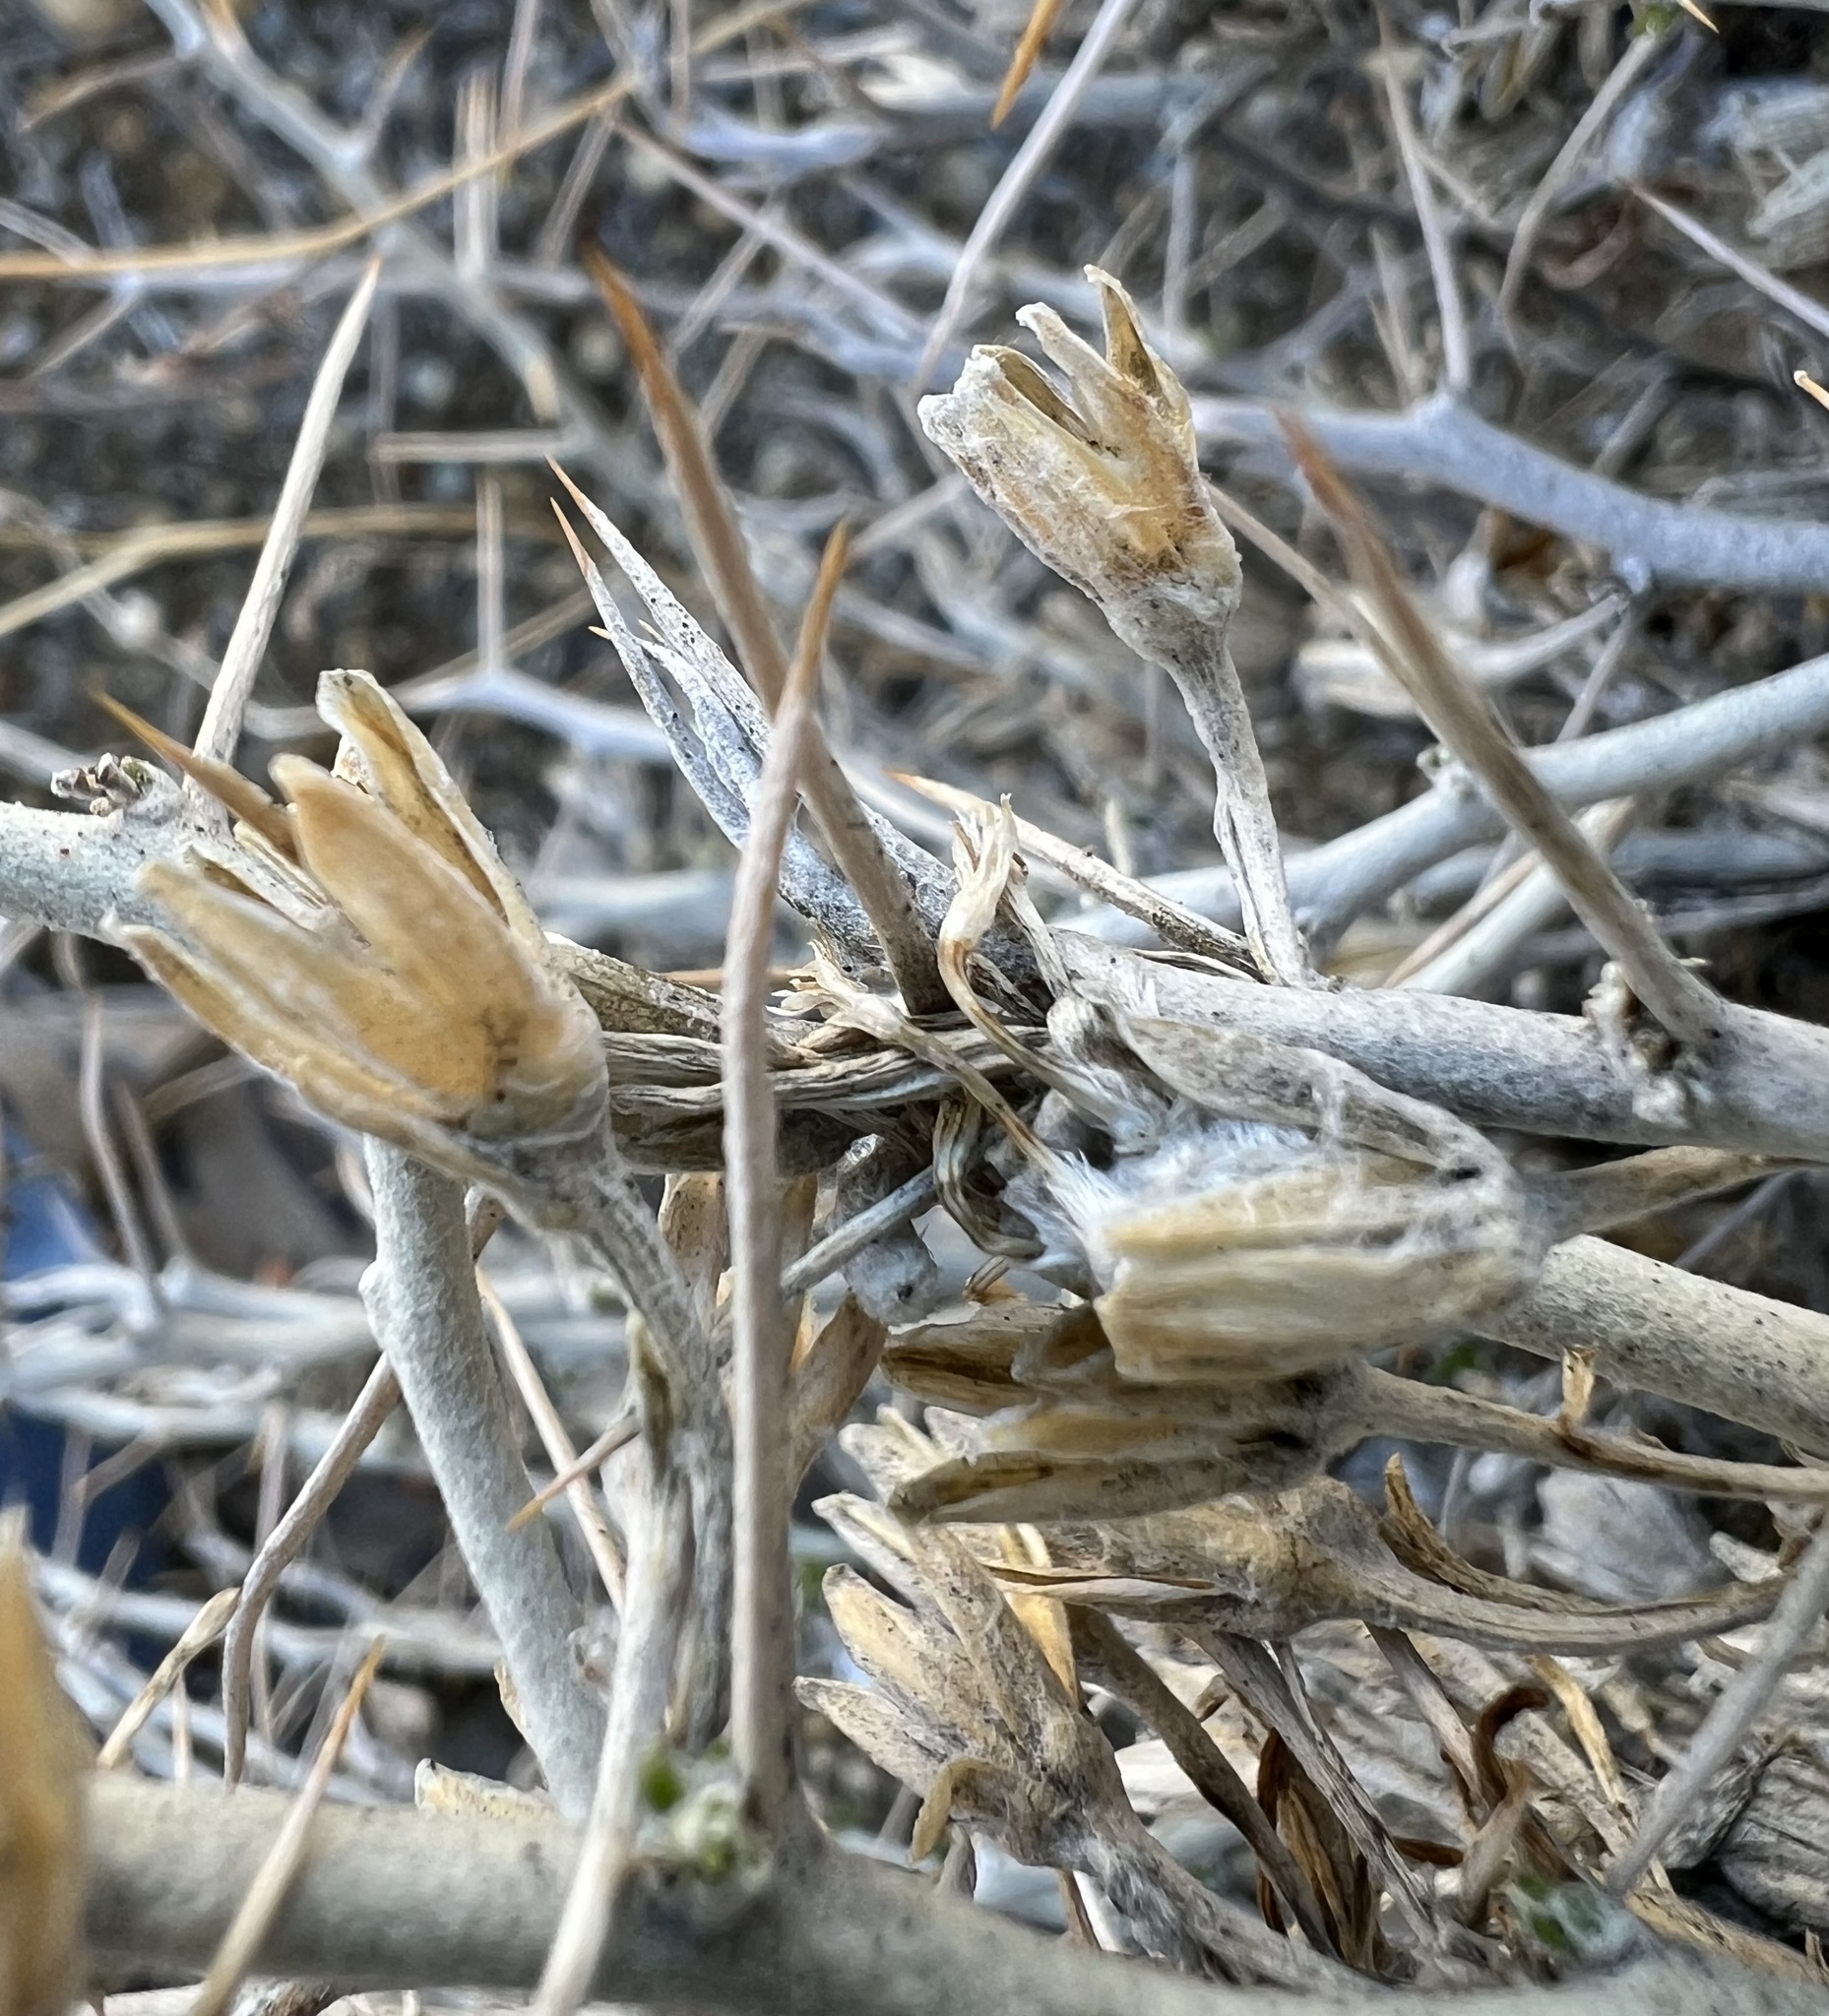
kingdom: Plantae
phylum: Tracheophyta
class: Magnoliopsida
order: Asterales
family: Asteraceae
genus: Tetradymia
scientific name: Tetradymia axillaris
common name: Long-spine horsebrush
